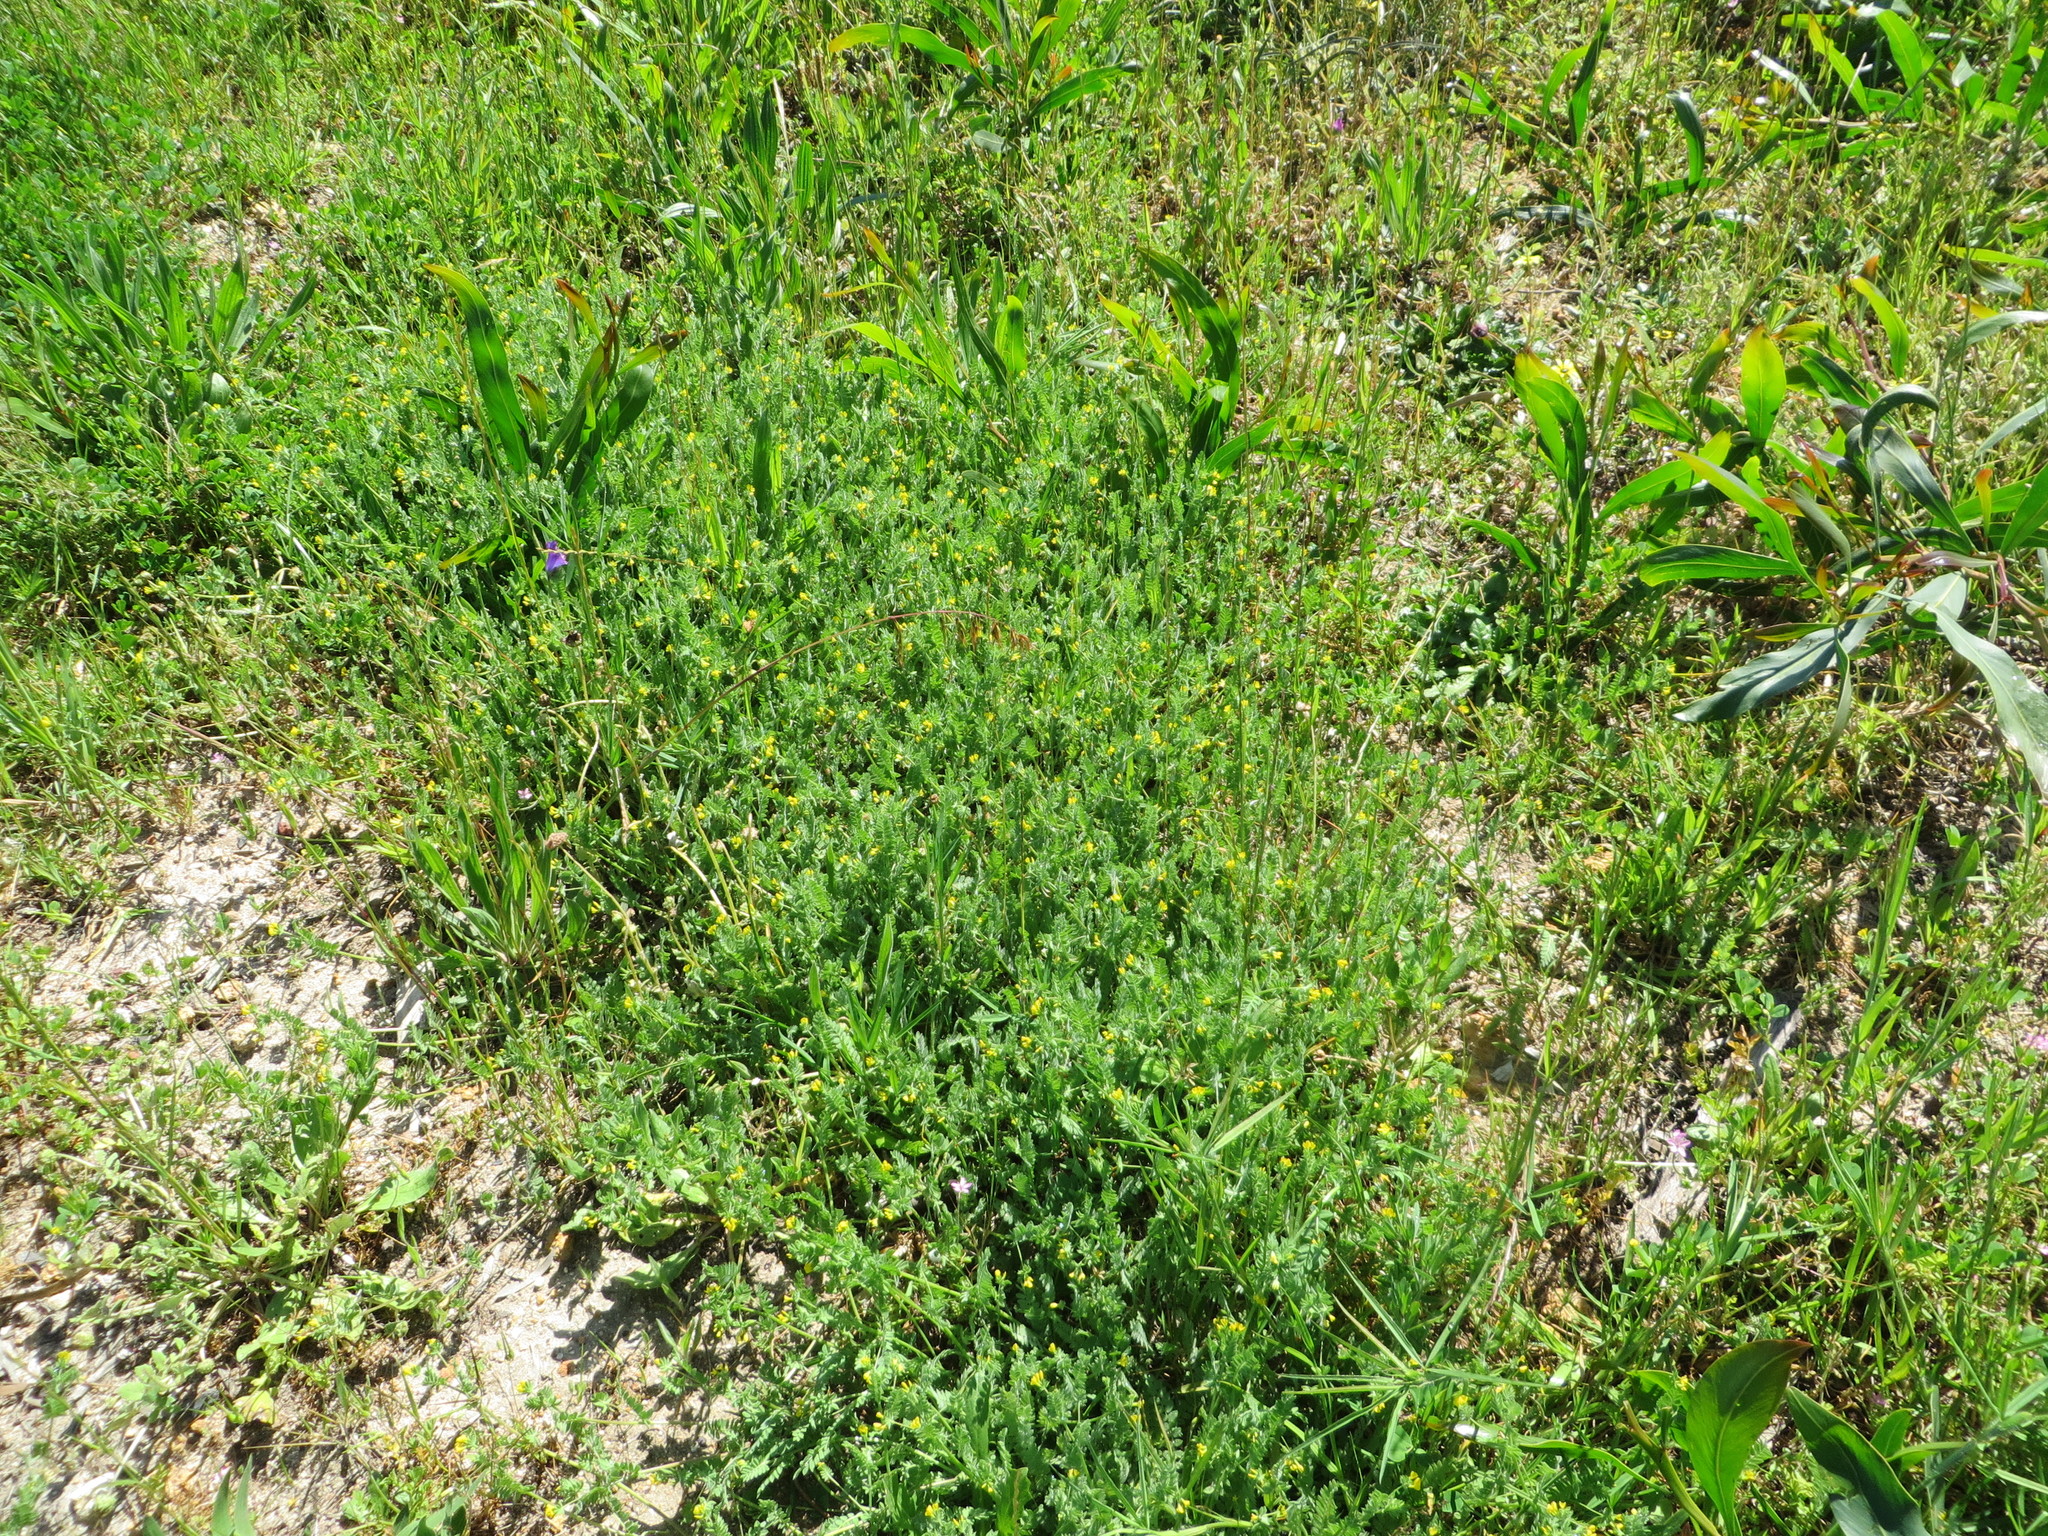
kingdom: Plantae
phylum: Tracheophyta
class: Magnoliopsida
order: Fabales
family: Fabaceae
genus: Ornithopus
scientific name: Ornithopus compressus
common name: Yellow serradella
